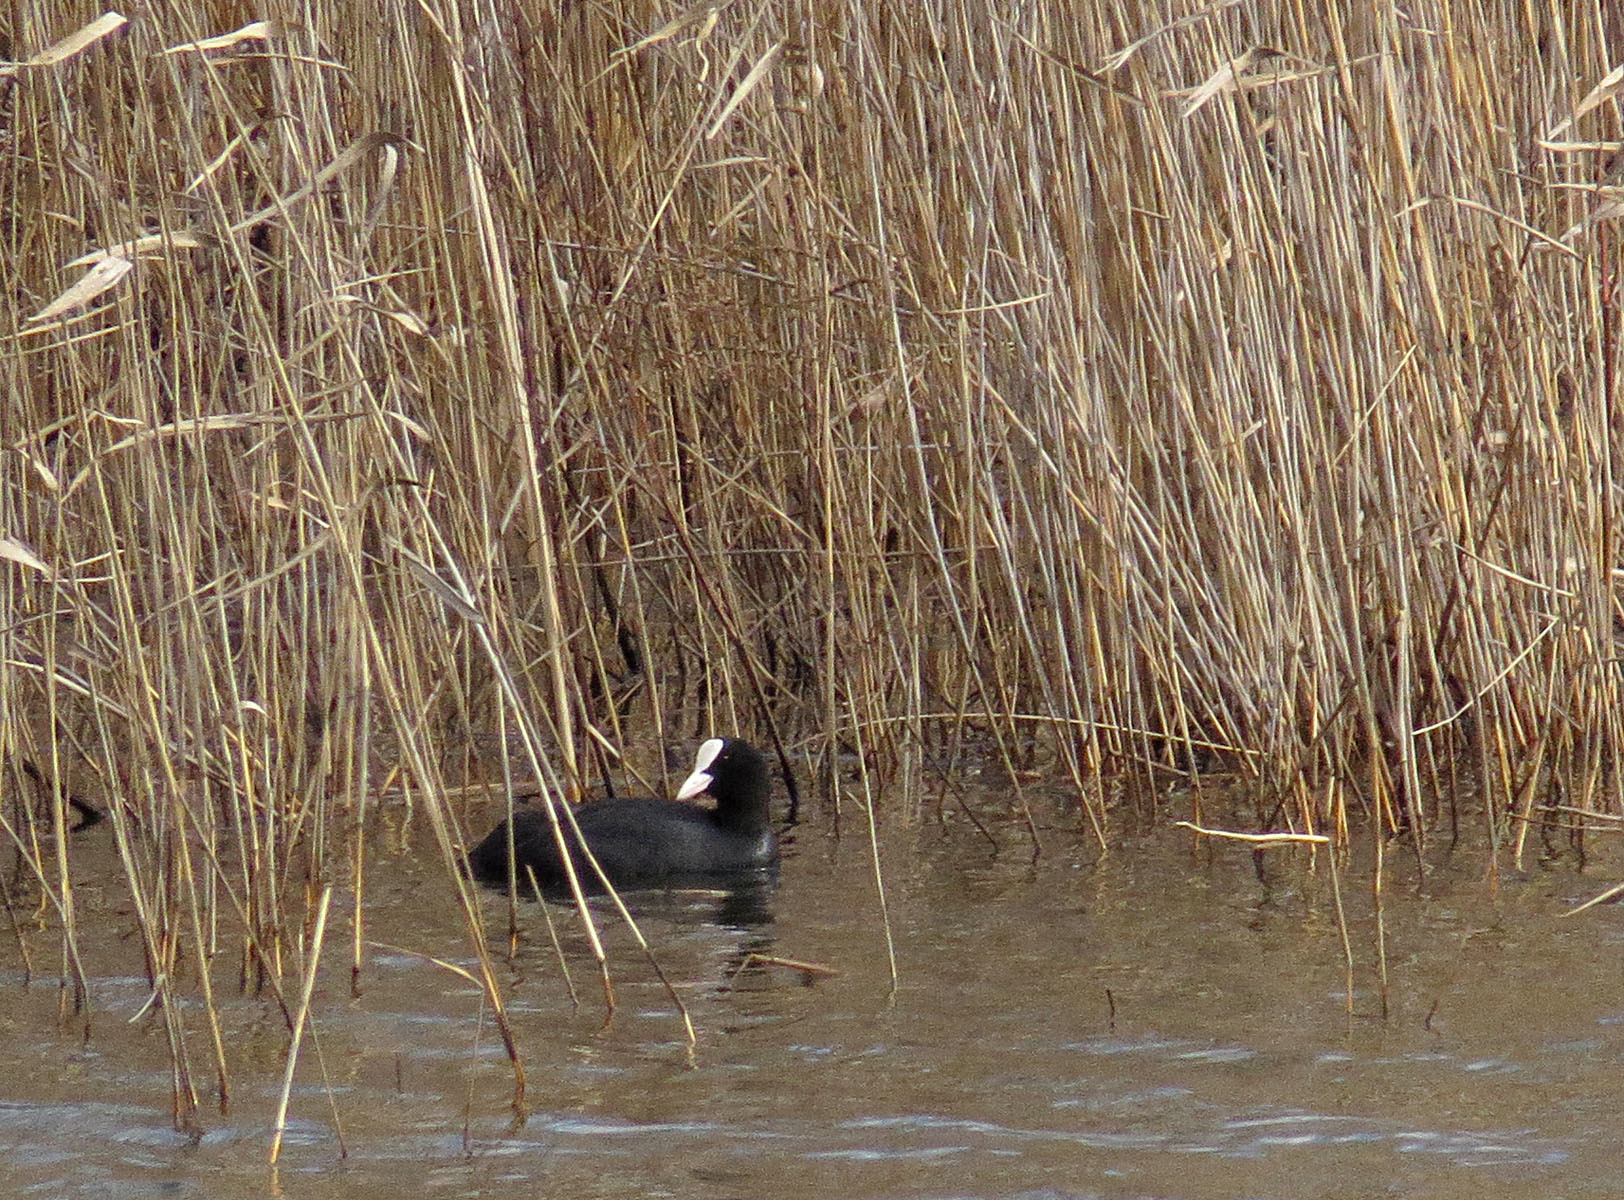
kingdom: Animalia
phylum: Chordata
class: Aves
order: Gruiformes
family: Rallidae
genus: Fulica
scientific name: Fulica atra
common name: Eurasian coot
